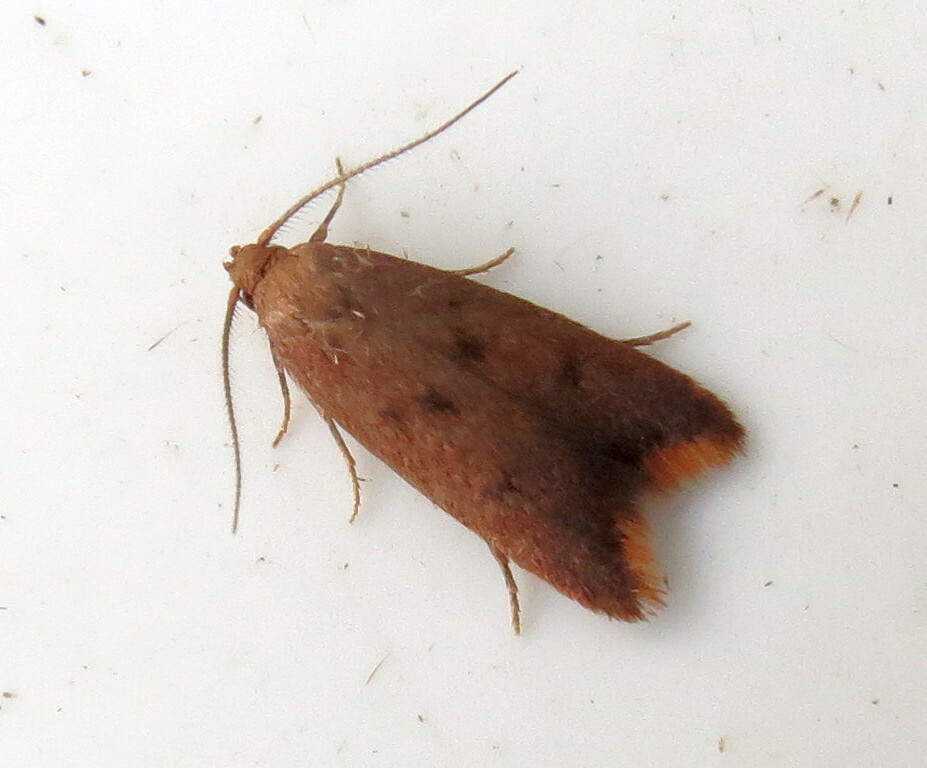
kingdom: Animalia
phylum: Arthropoda
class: Insecta
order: Lepidoptera
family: Oecophoridae
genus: Tachystola
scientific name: Tachystola acroxantha
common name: Ruddy streak
